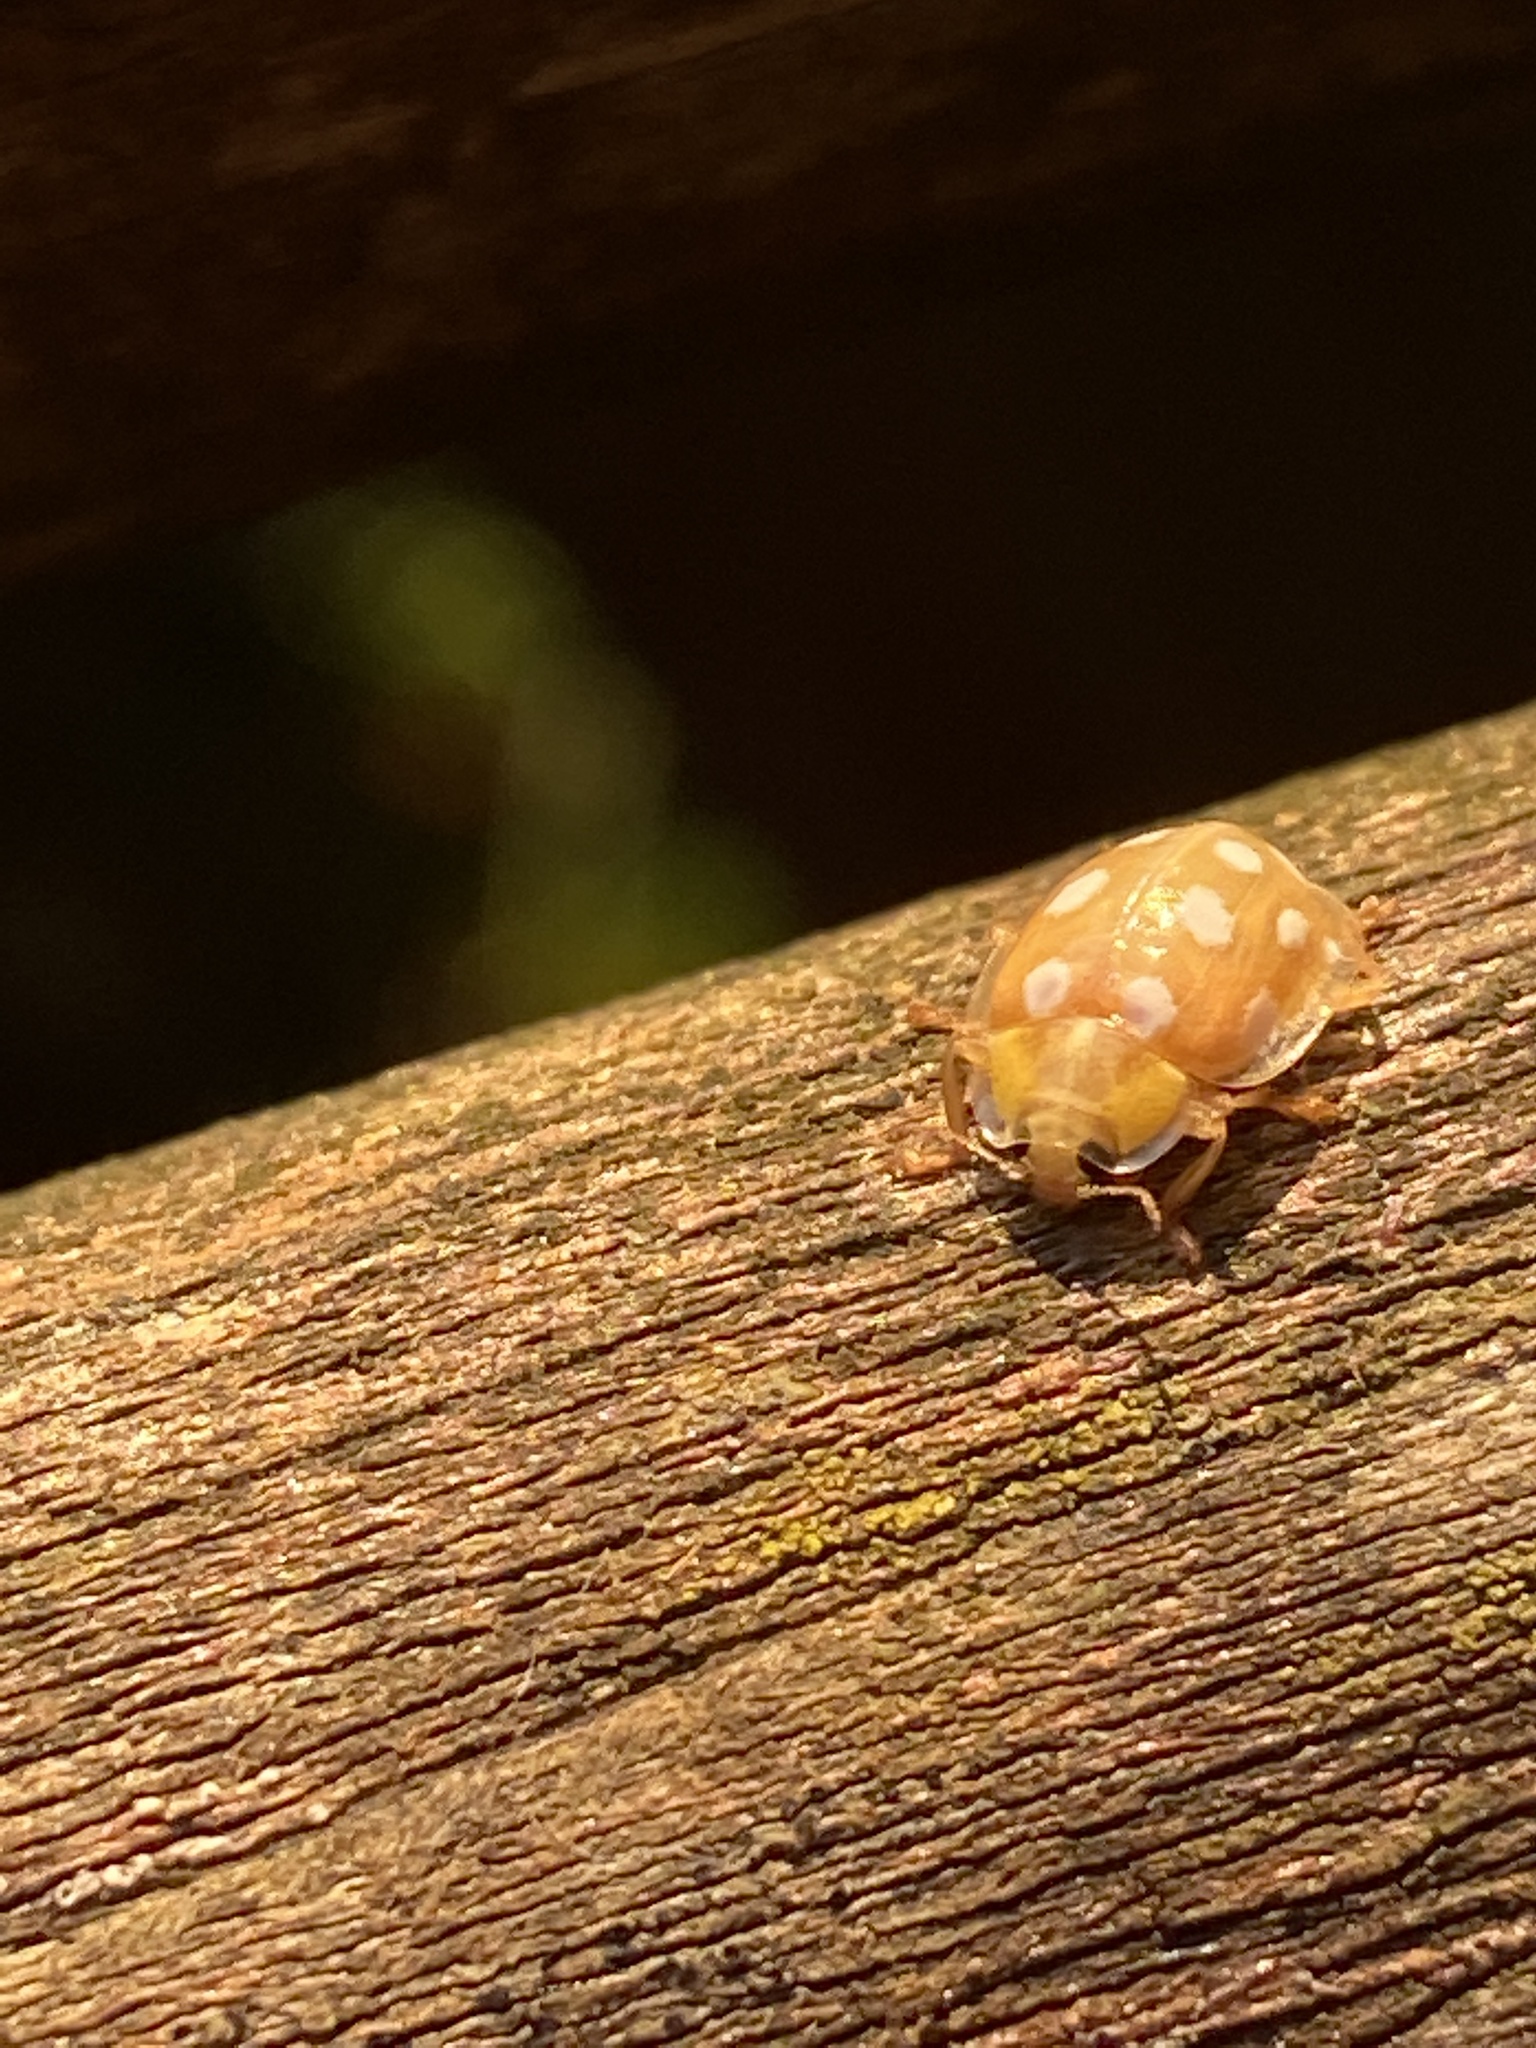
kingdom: Animalia
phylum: Arthropoda
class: Insecta
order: Coleoptera
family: Coccinellidae
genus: Halyzia
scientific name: Halyzia sedecimguttata
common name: Orange ladybird
